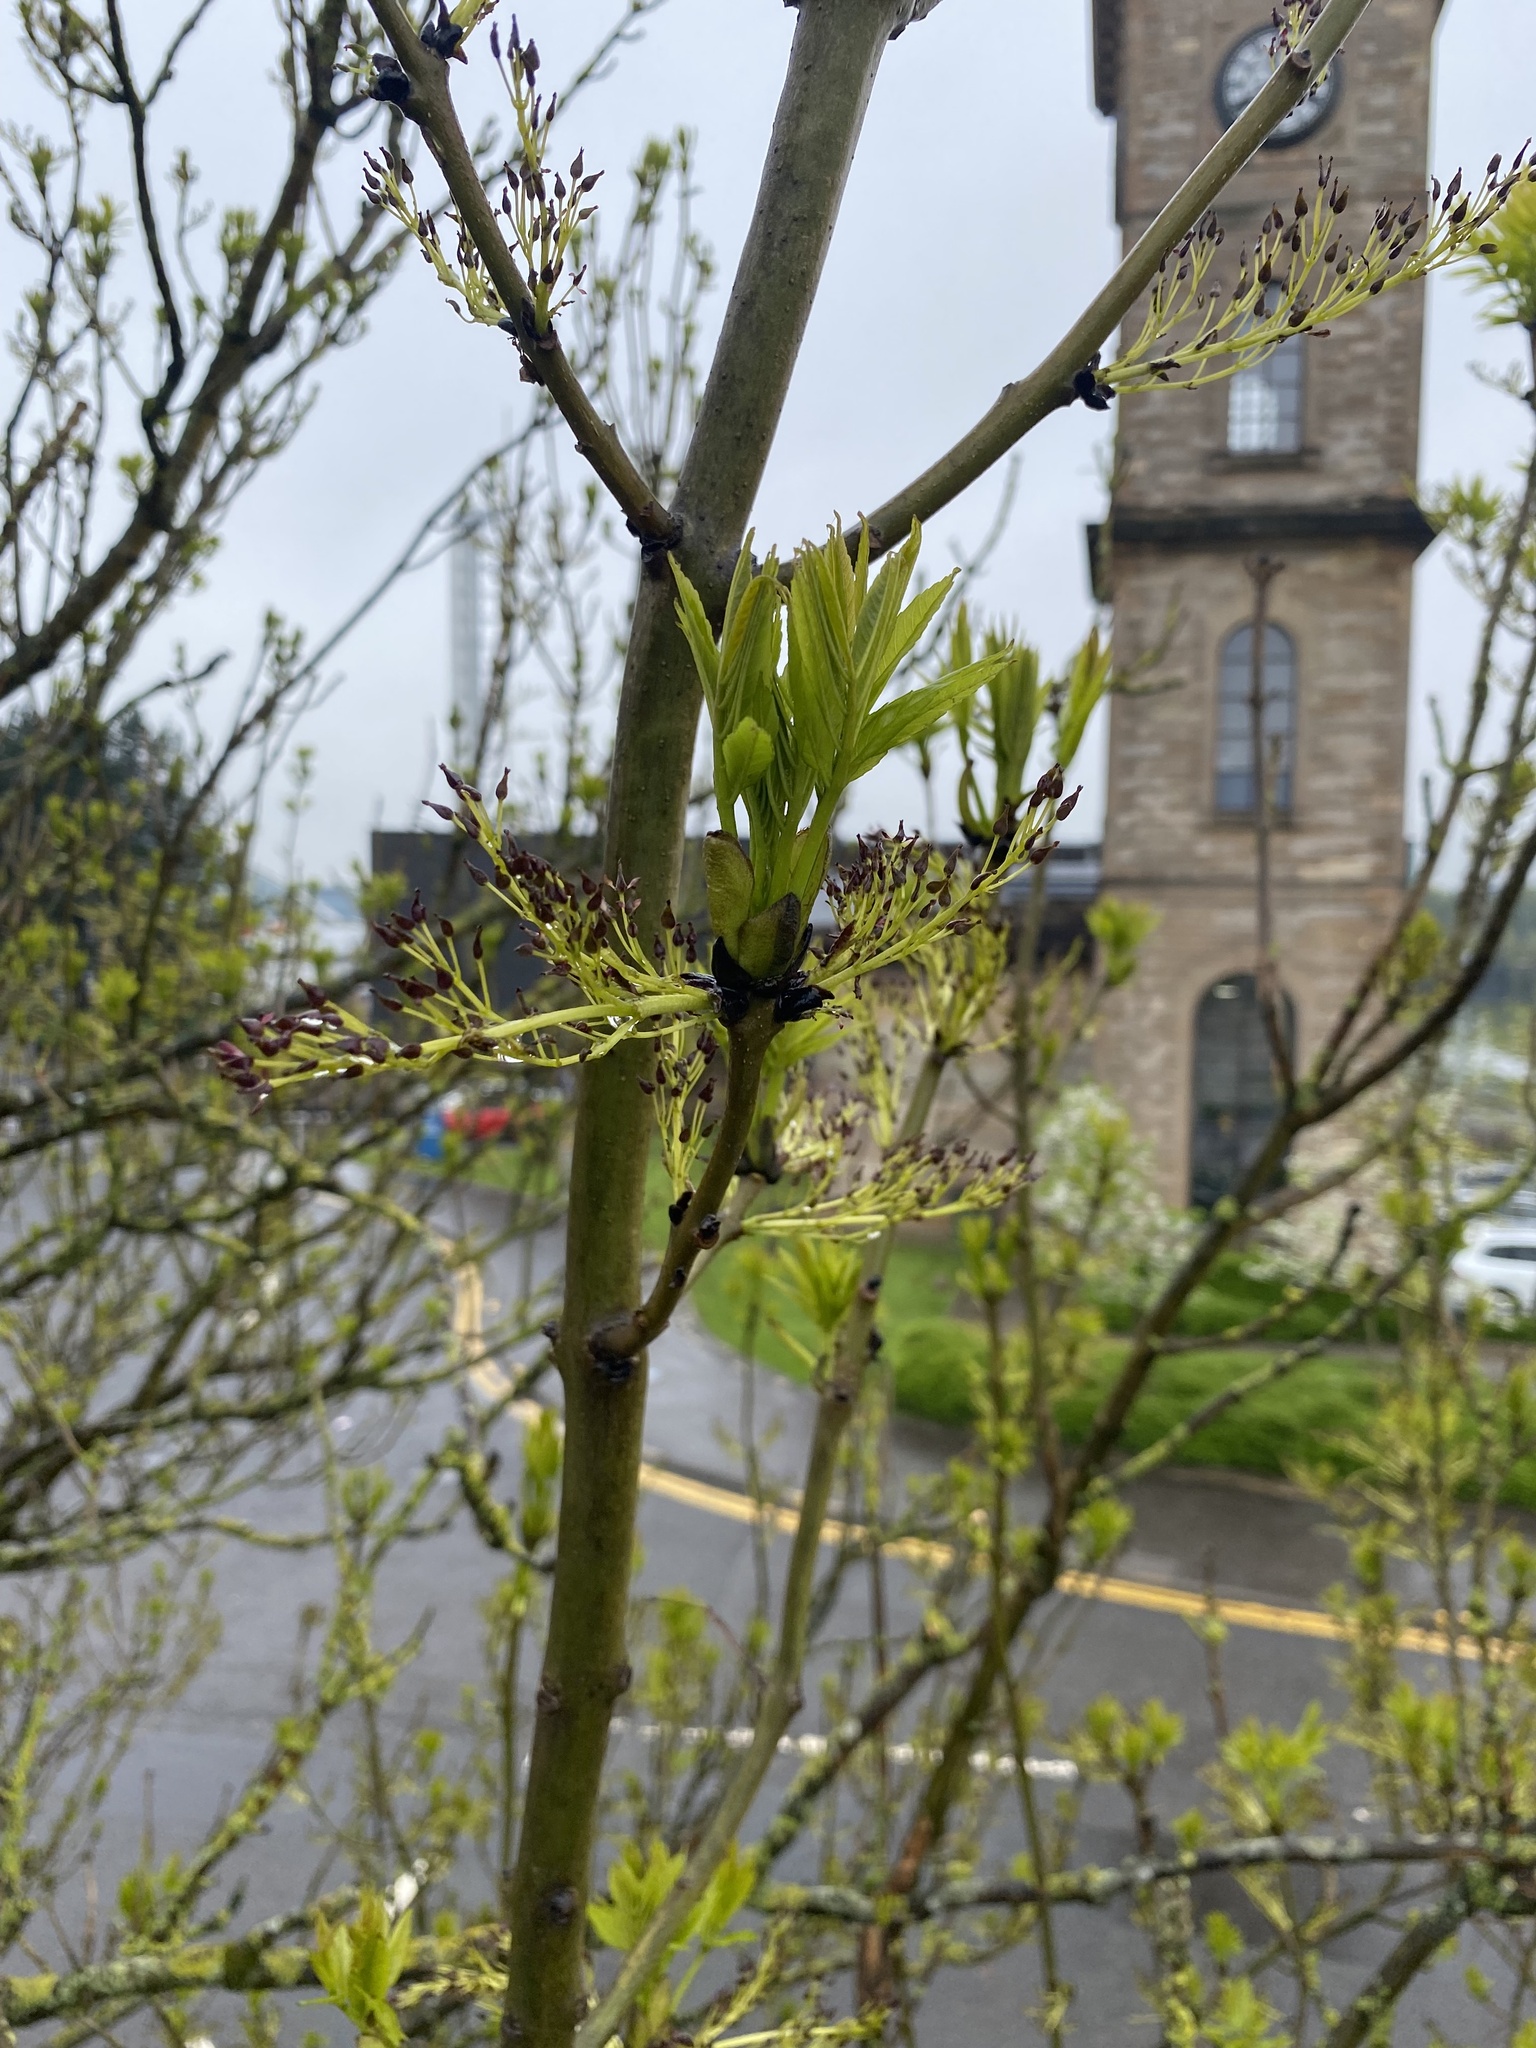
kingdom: Plantae
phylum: Tracheophyta
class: Magnoliopsida
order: Lamiales
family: Oleaceae
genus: Fraxinus
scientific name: Fraxinus excelsior
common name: European ash
